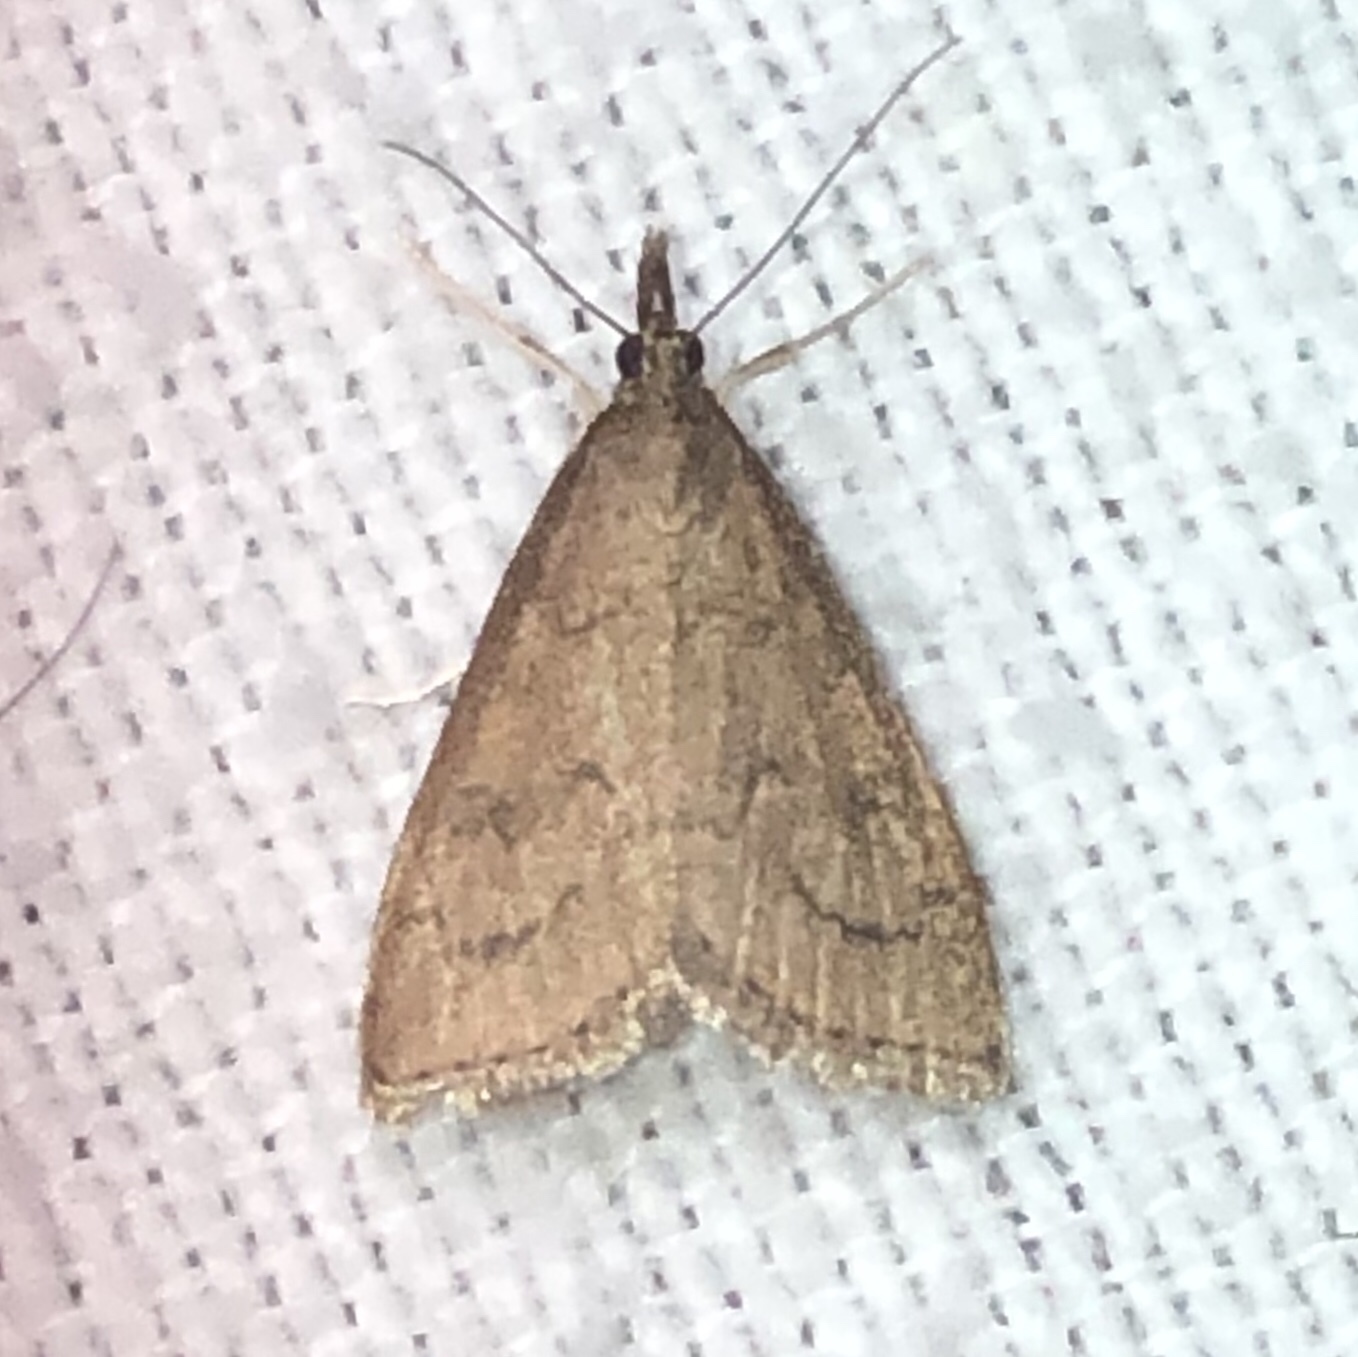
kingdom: Animalia
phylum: Arthropoda
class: Insecta
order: Lepidoptera
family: Crambidae
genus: Udea
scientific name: Udea rubigalis
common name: Celery leaftier moth
